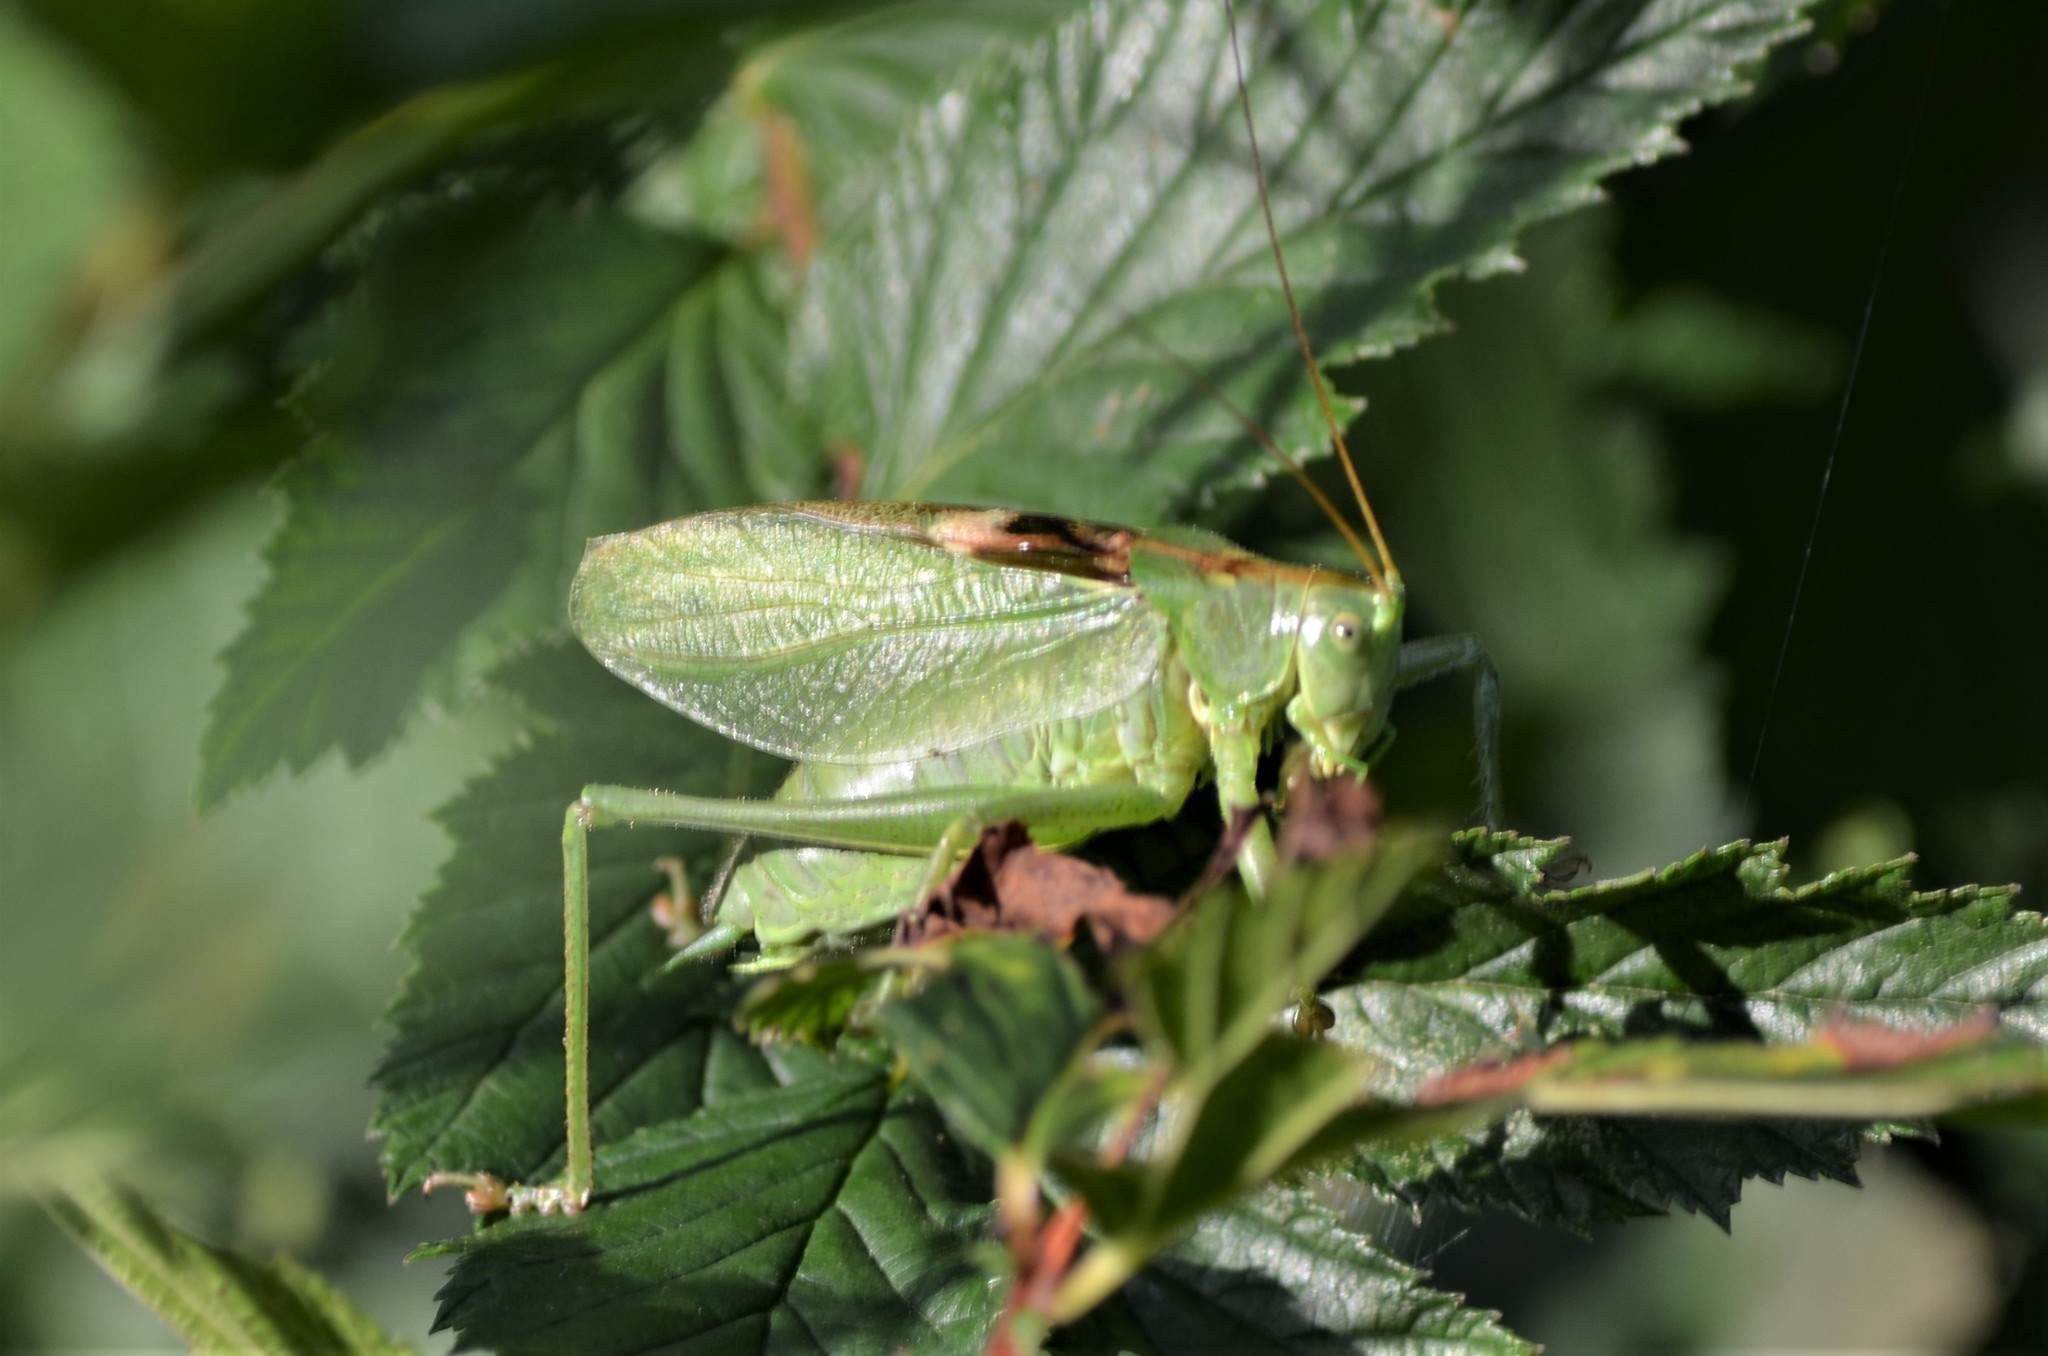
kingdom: Animalia
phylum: Arthropoda
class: Insecta
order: Orthoptera
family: Tettigoniidae
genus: Tettigonia
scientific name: Tettigonia cantans
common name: Upland green bush-cricket
